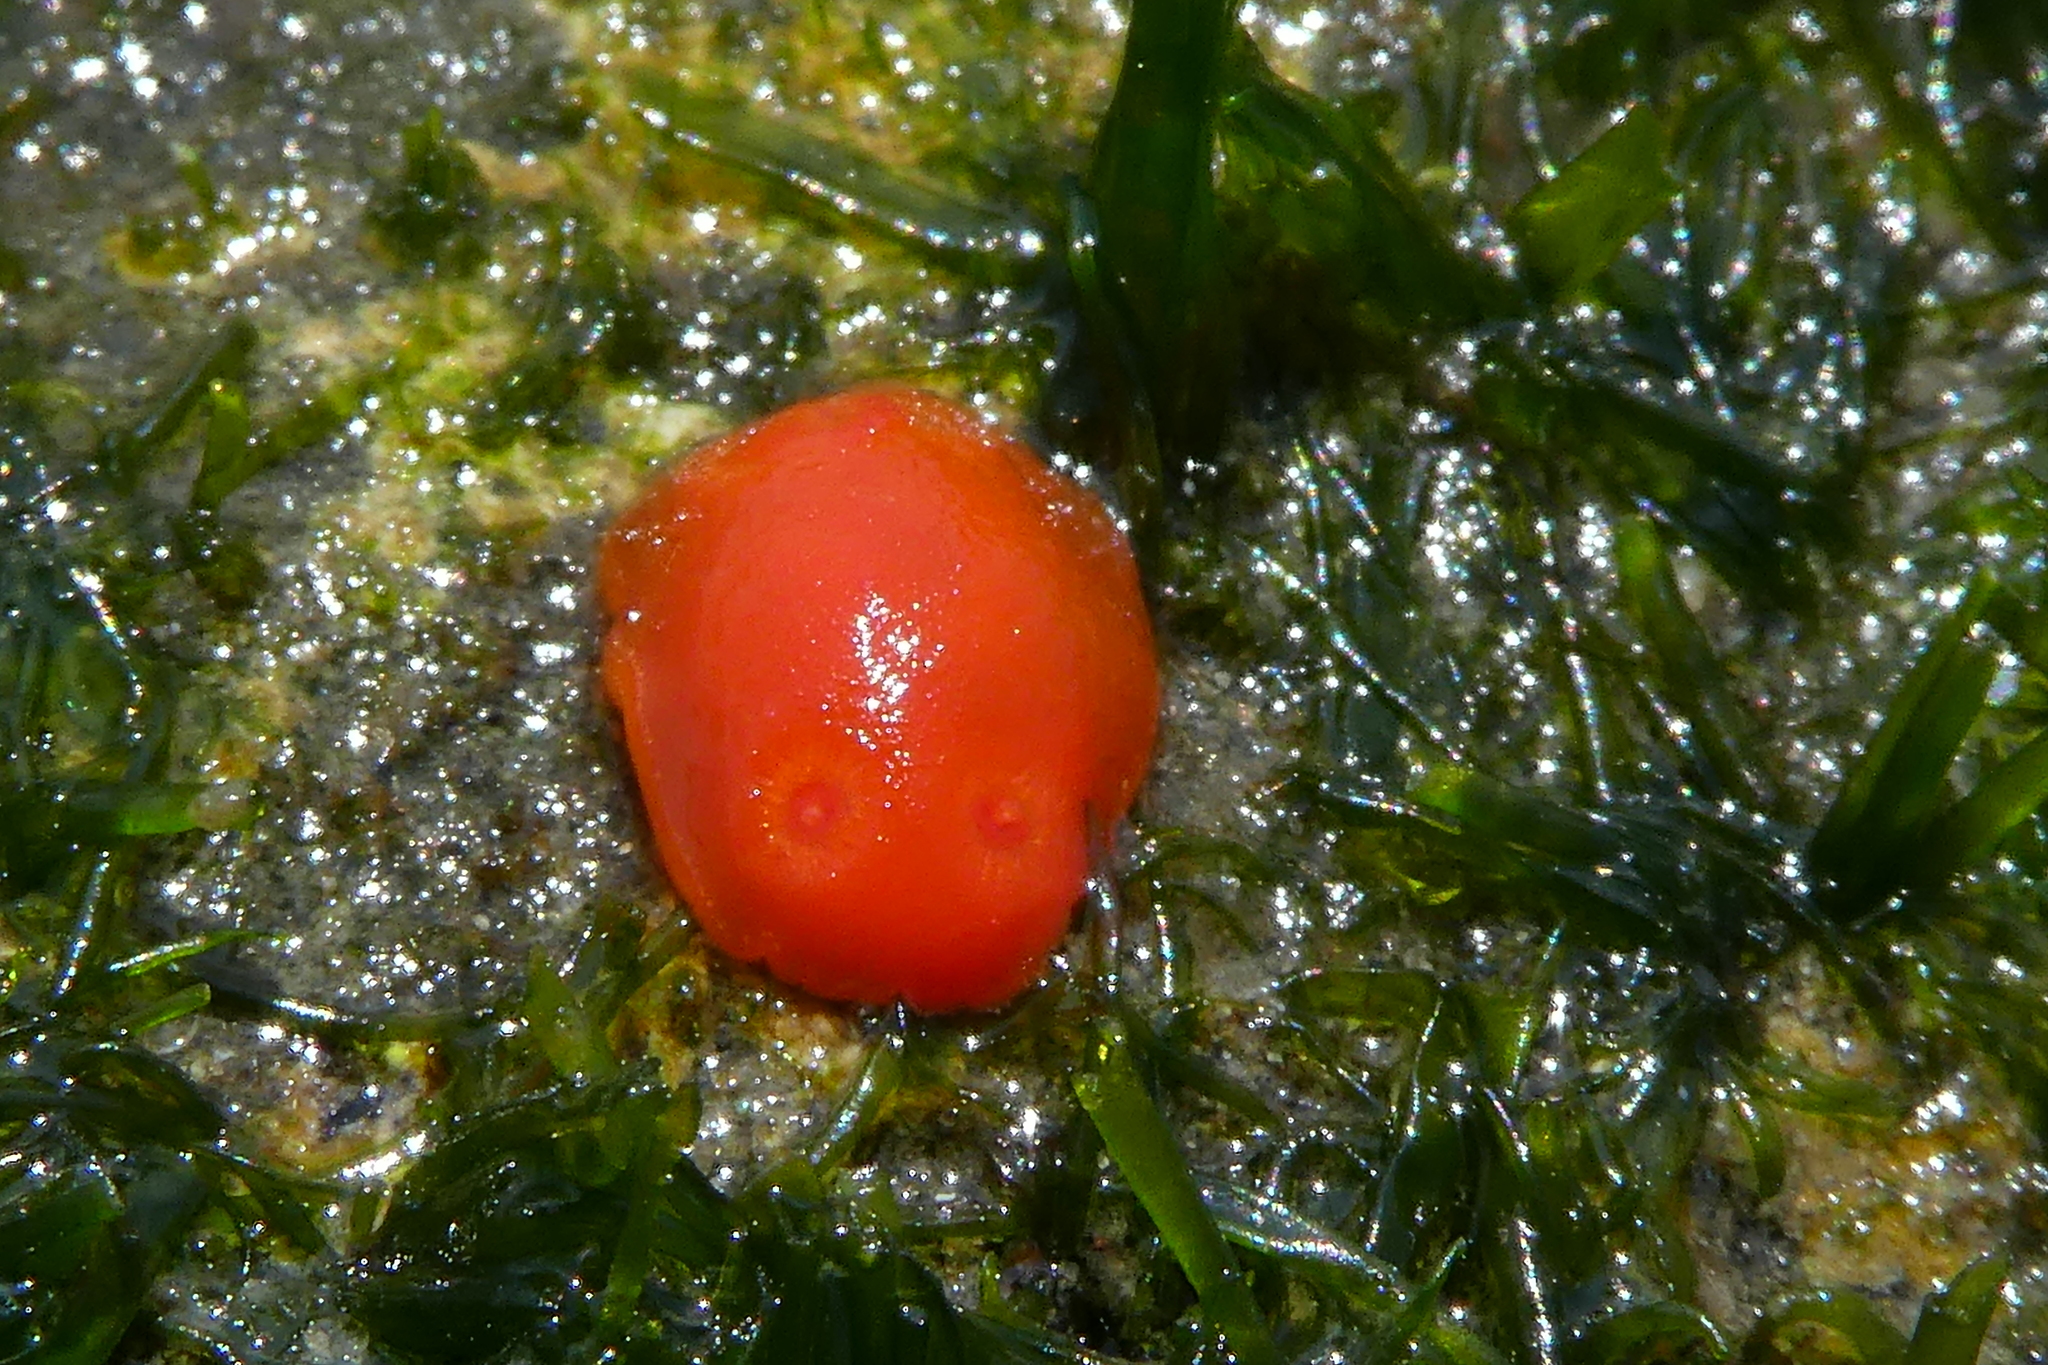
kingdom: Animalia
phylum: Mollusca
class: Gastropoda
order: Nudibranchia
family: Discodorididae
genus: Rostanga
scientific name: Rostanga pulchra
